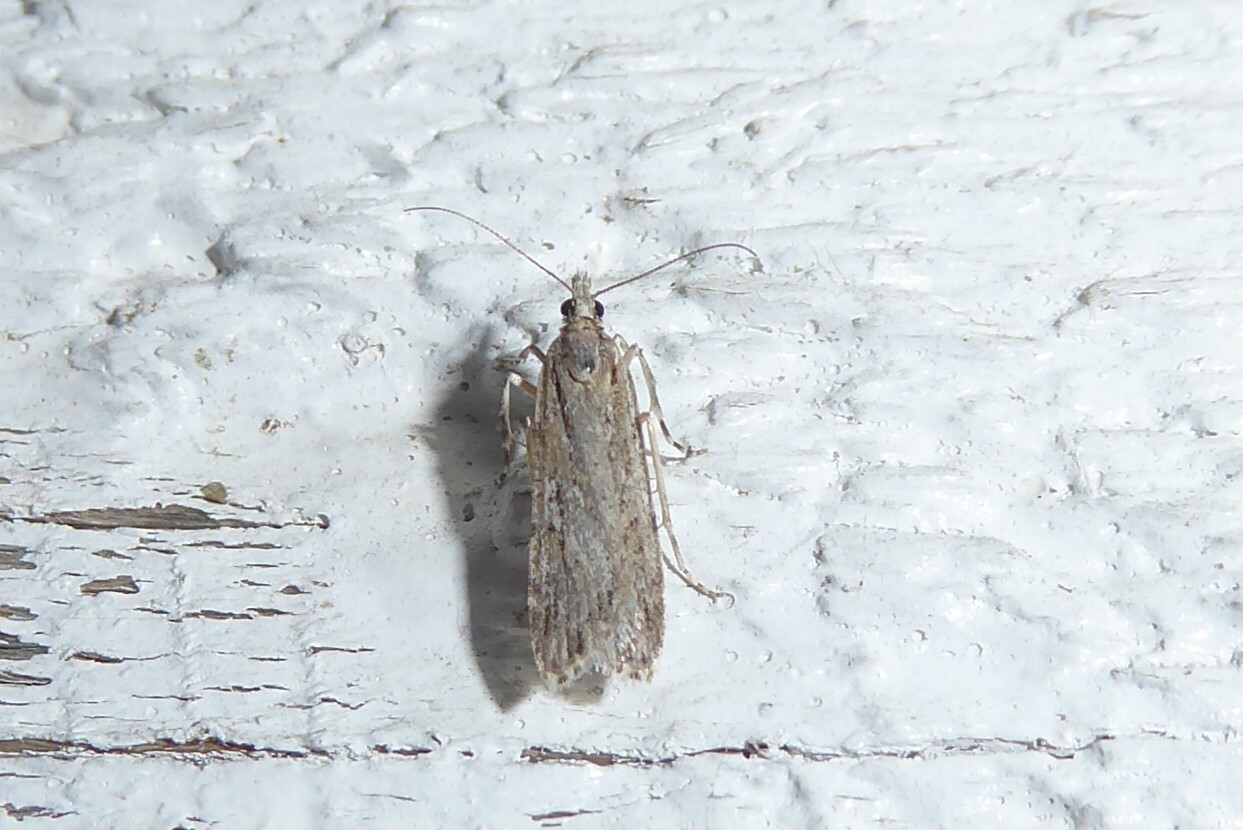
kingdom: Animalia
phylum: Arthropoda
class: Insecta
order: Lepidoptera
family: Crambidae
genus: Scoparia
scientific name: Scoparia chalicodes
